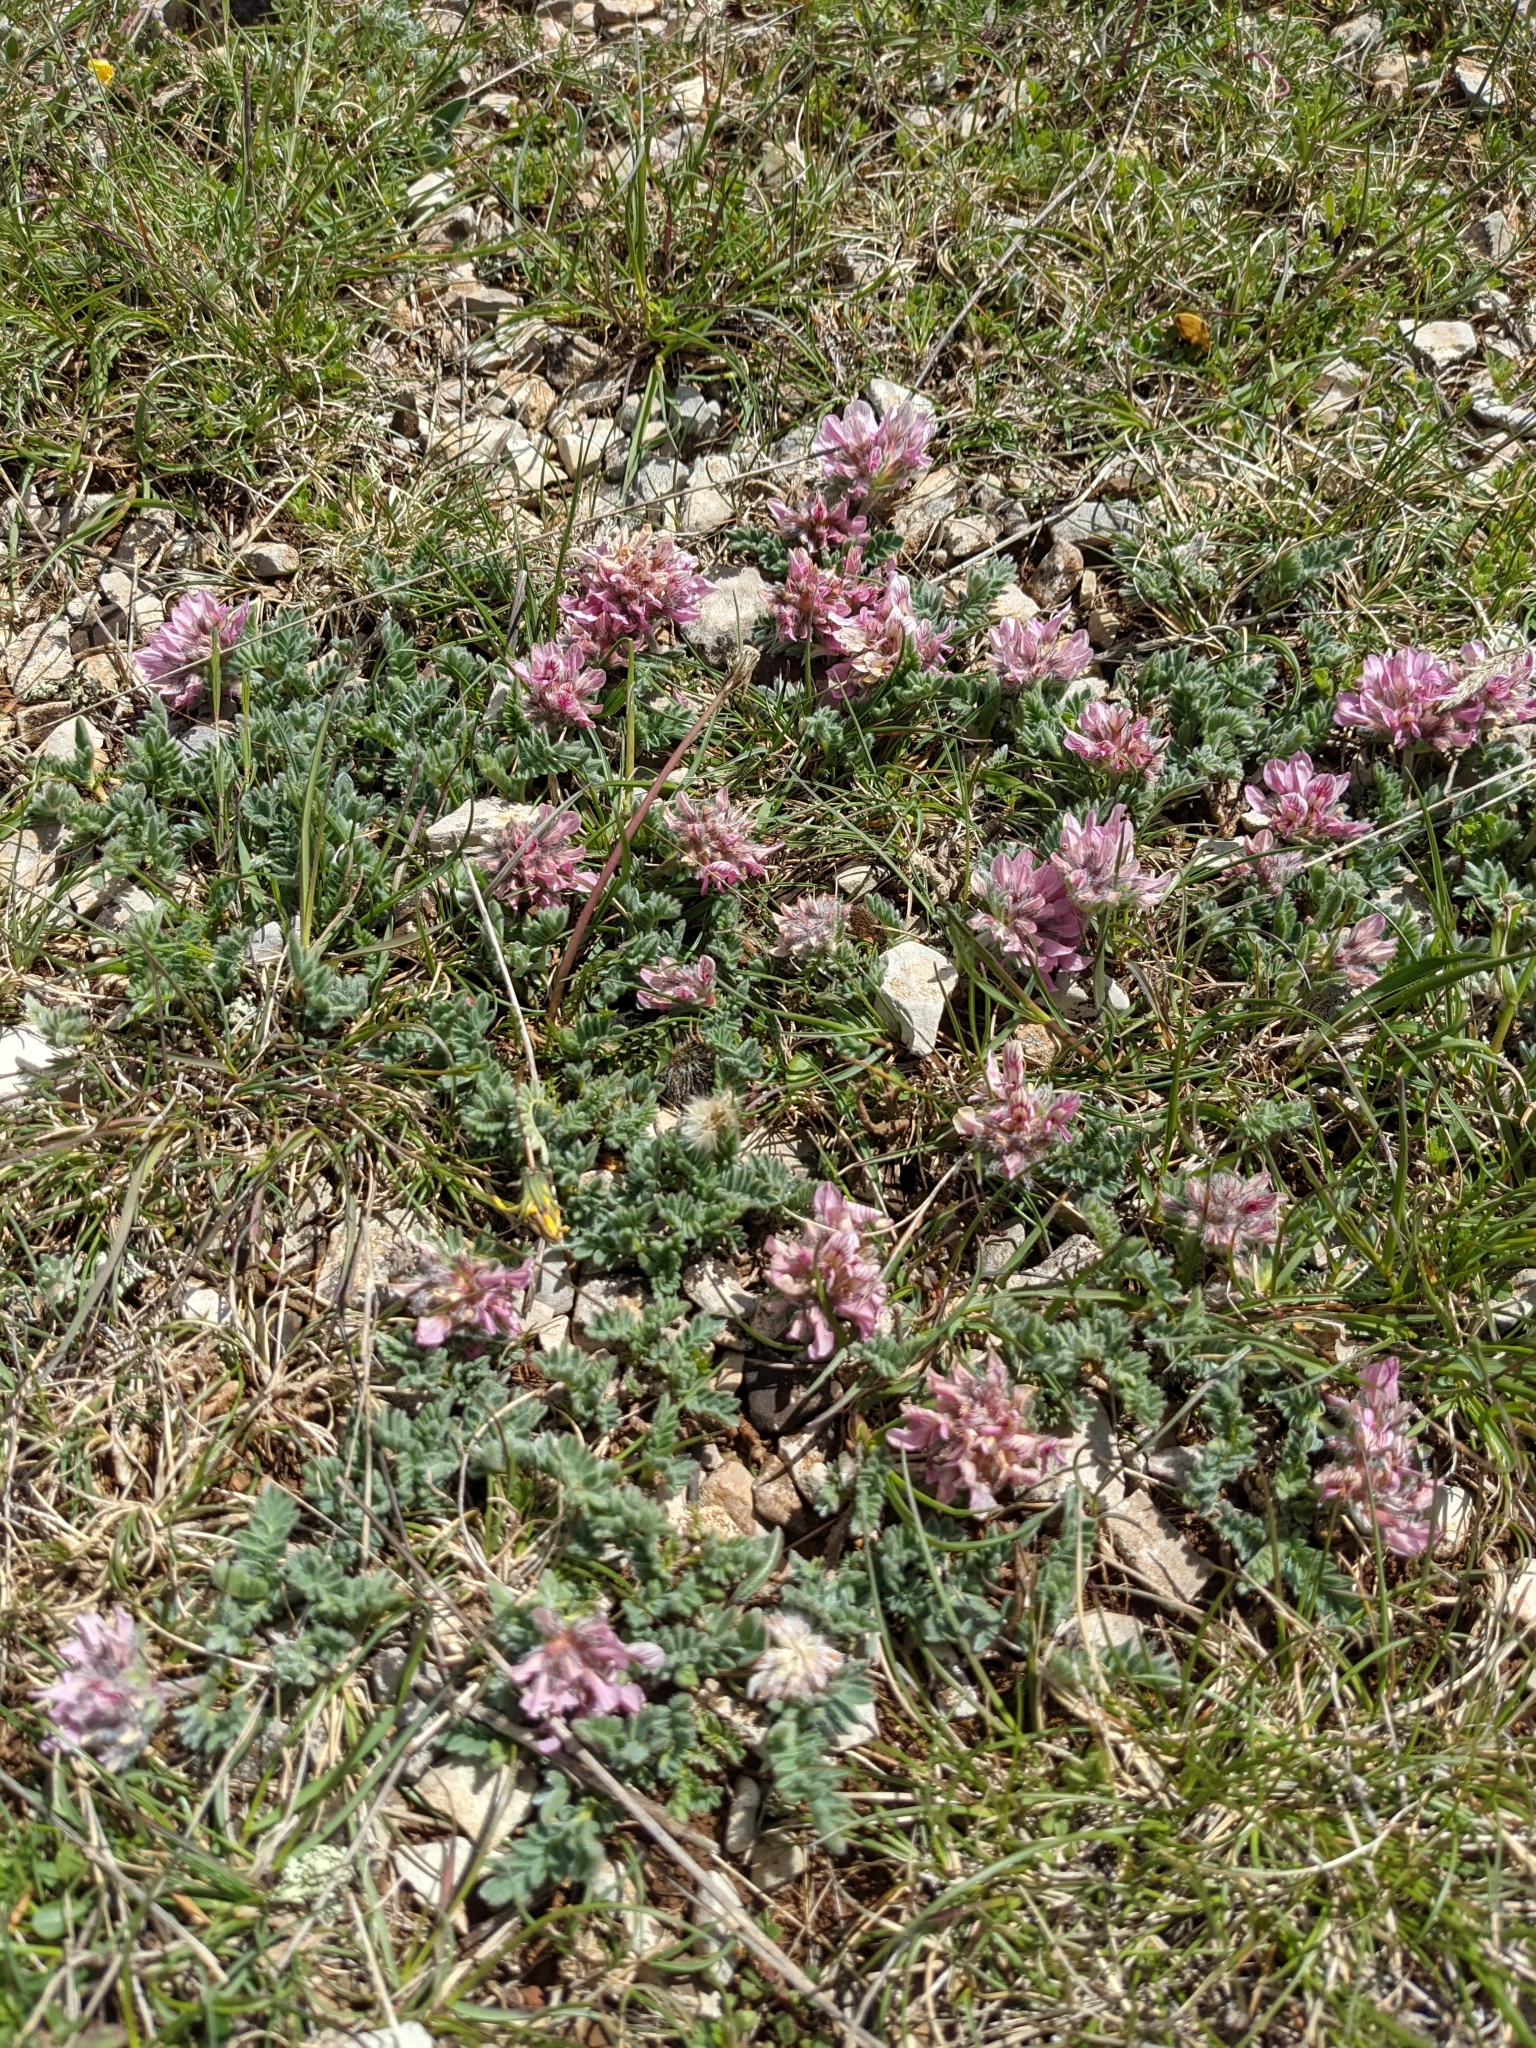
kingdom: Plantae
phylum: Tracheophyta
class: Magnoliopsida
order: Fabales
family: Fabaceae
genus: Anthyllis
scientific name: Anthyllis montana
